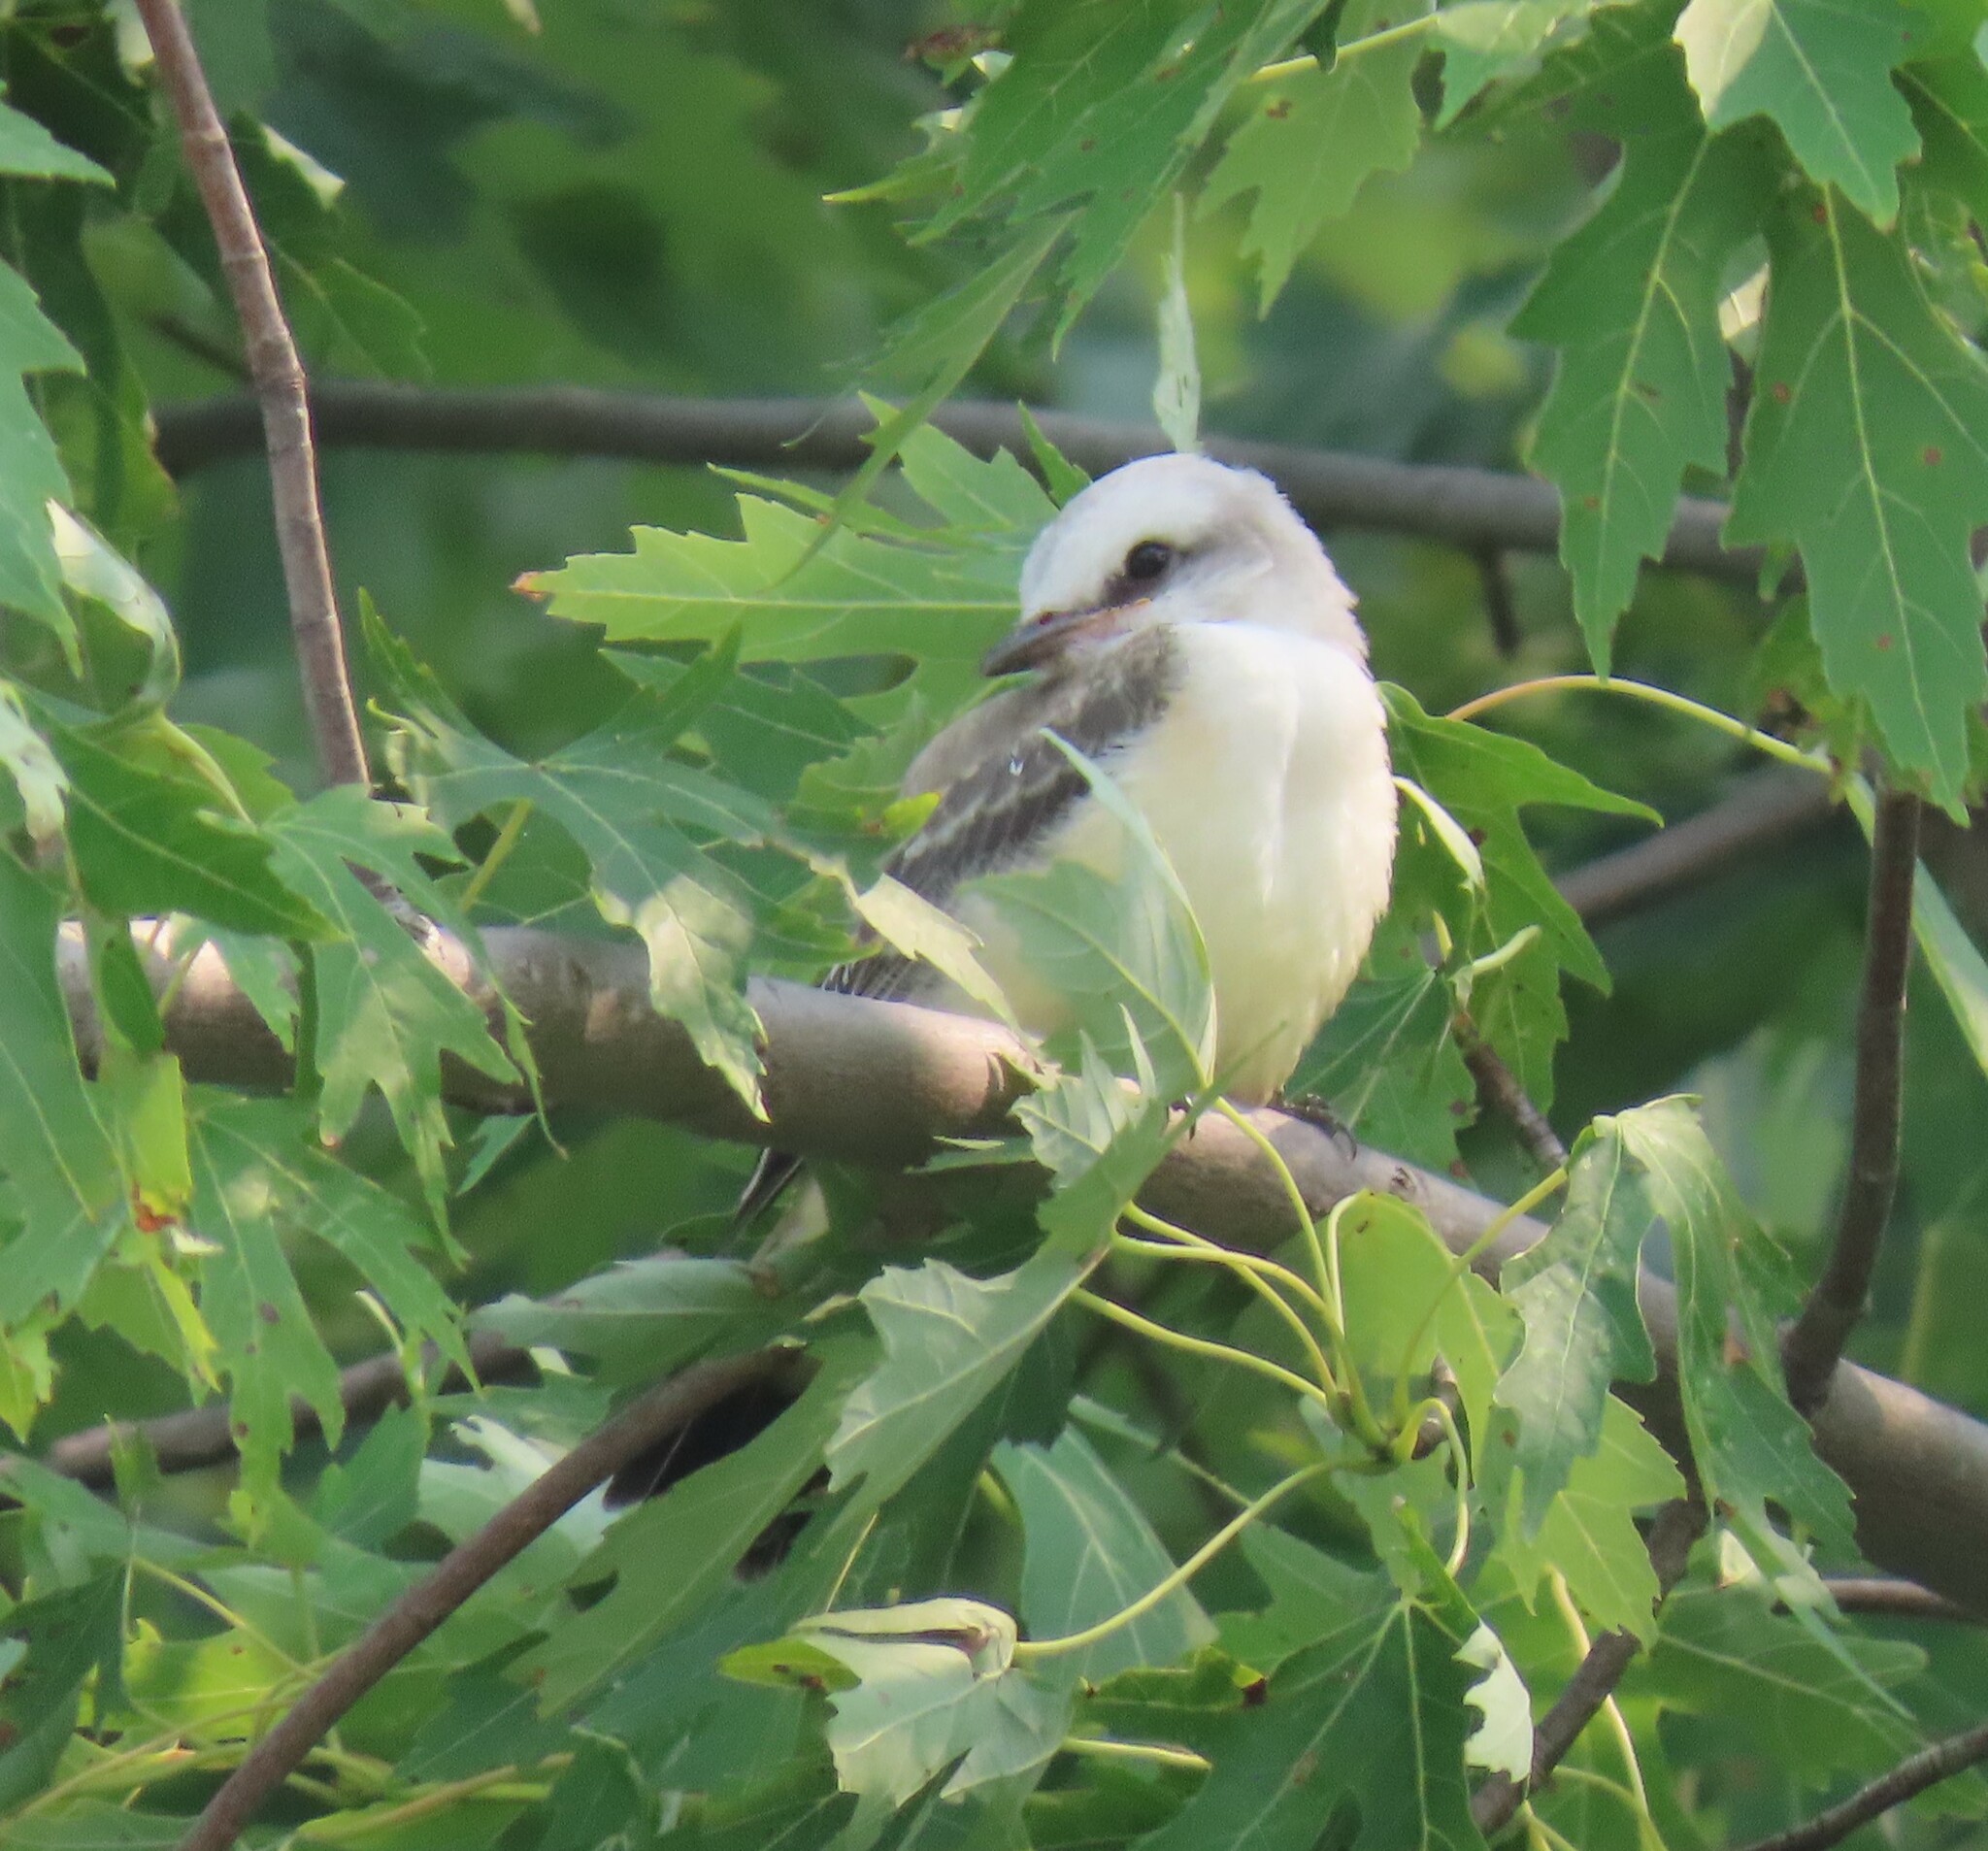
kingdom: Animalia
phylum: Chordata
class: Aves
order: Passeriformes
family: Tyrannidae
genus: Tyrannus
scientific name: Tyrannus forficatus
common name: Scissor-tailed flycatcher
